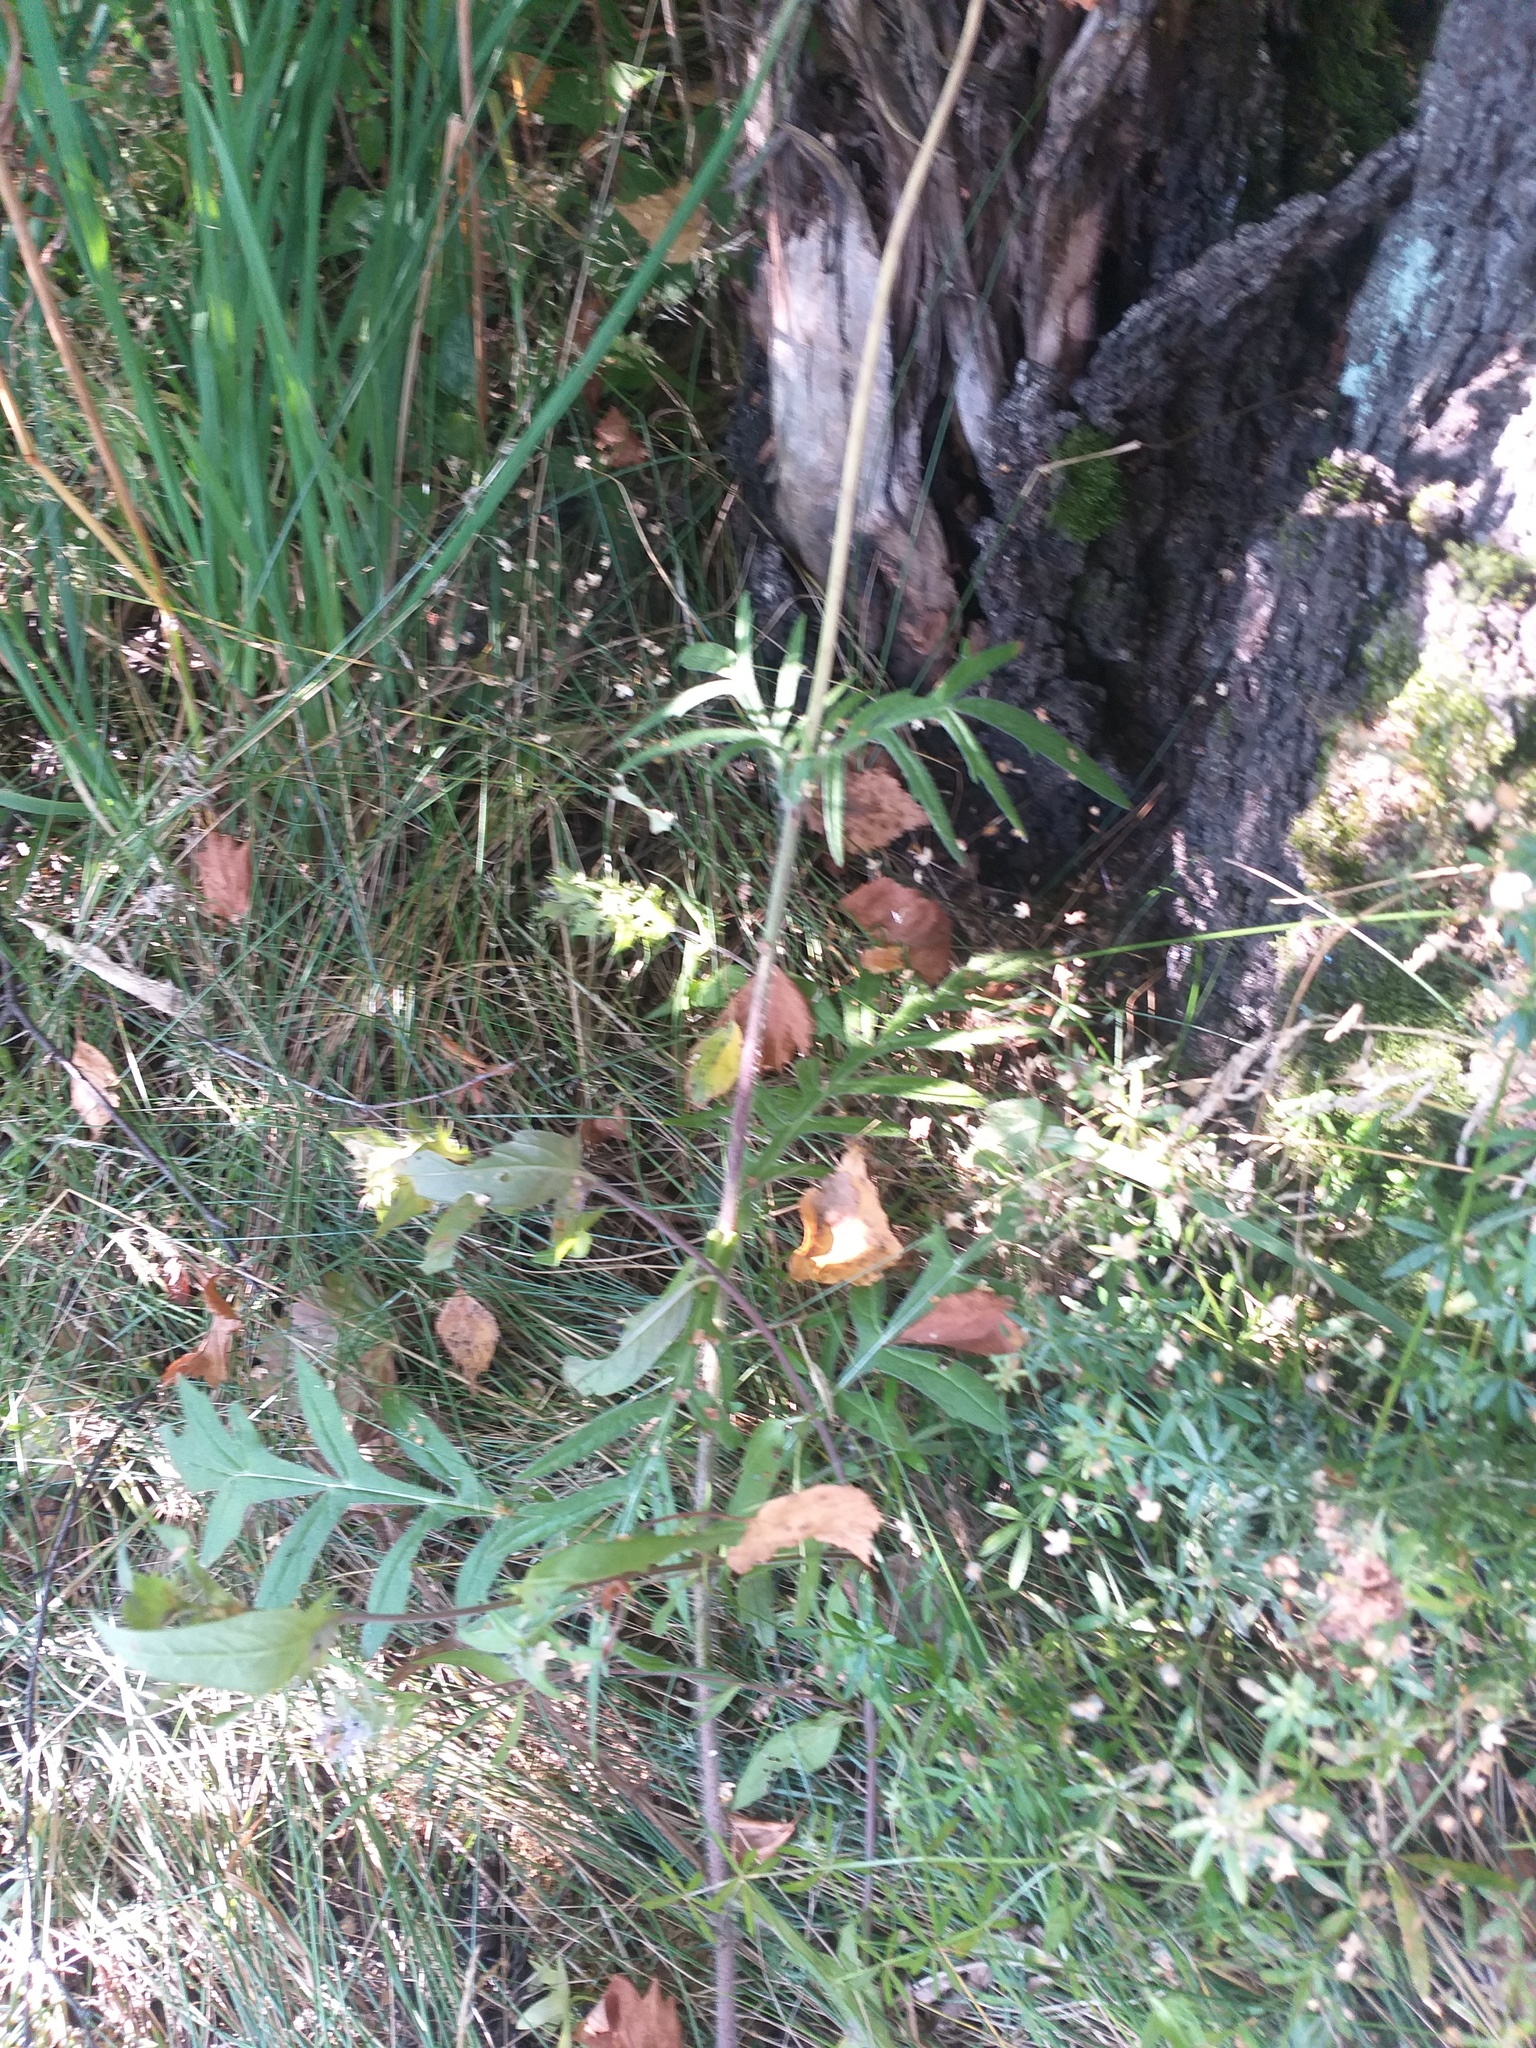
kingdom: Plantae
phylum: Tracheophyta
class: Magnoliopsida
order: Dipsacales
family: Caprifoliaceae
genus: Knautia
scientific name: Knautia arvensis
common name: Field scabiosa
